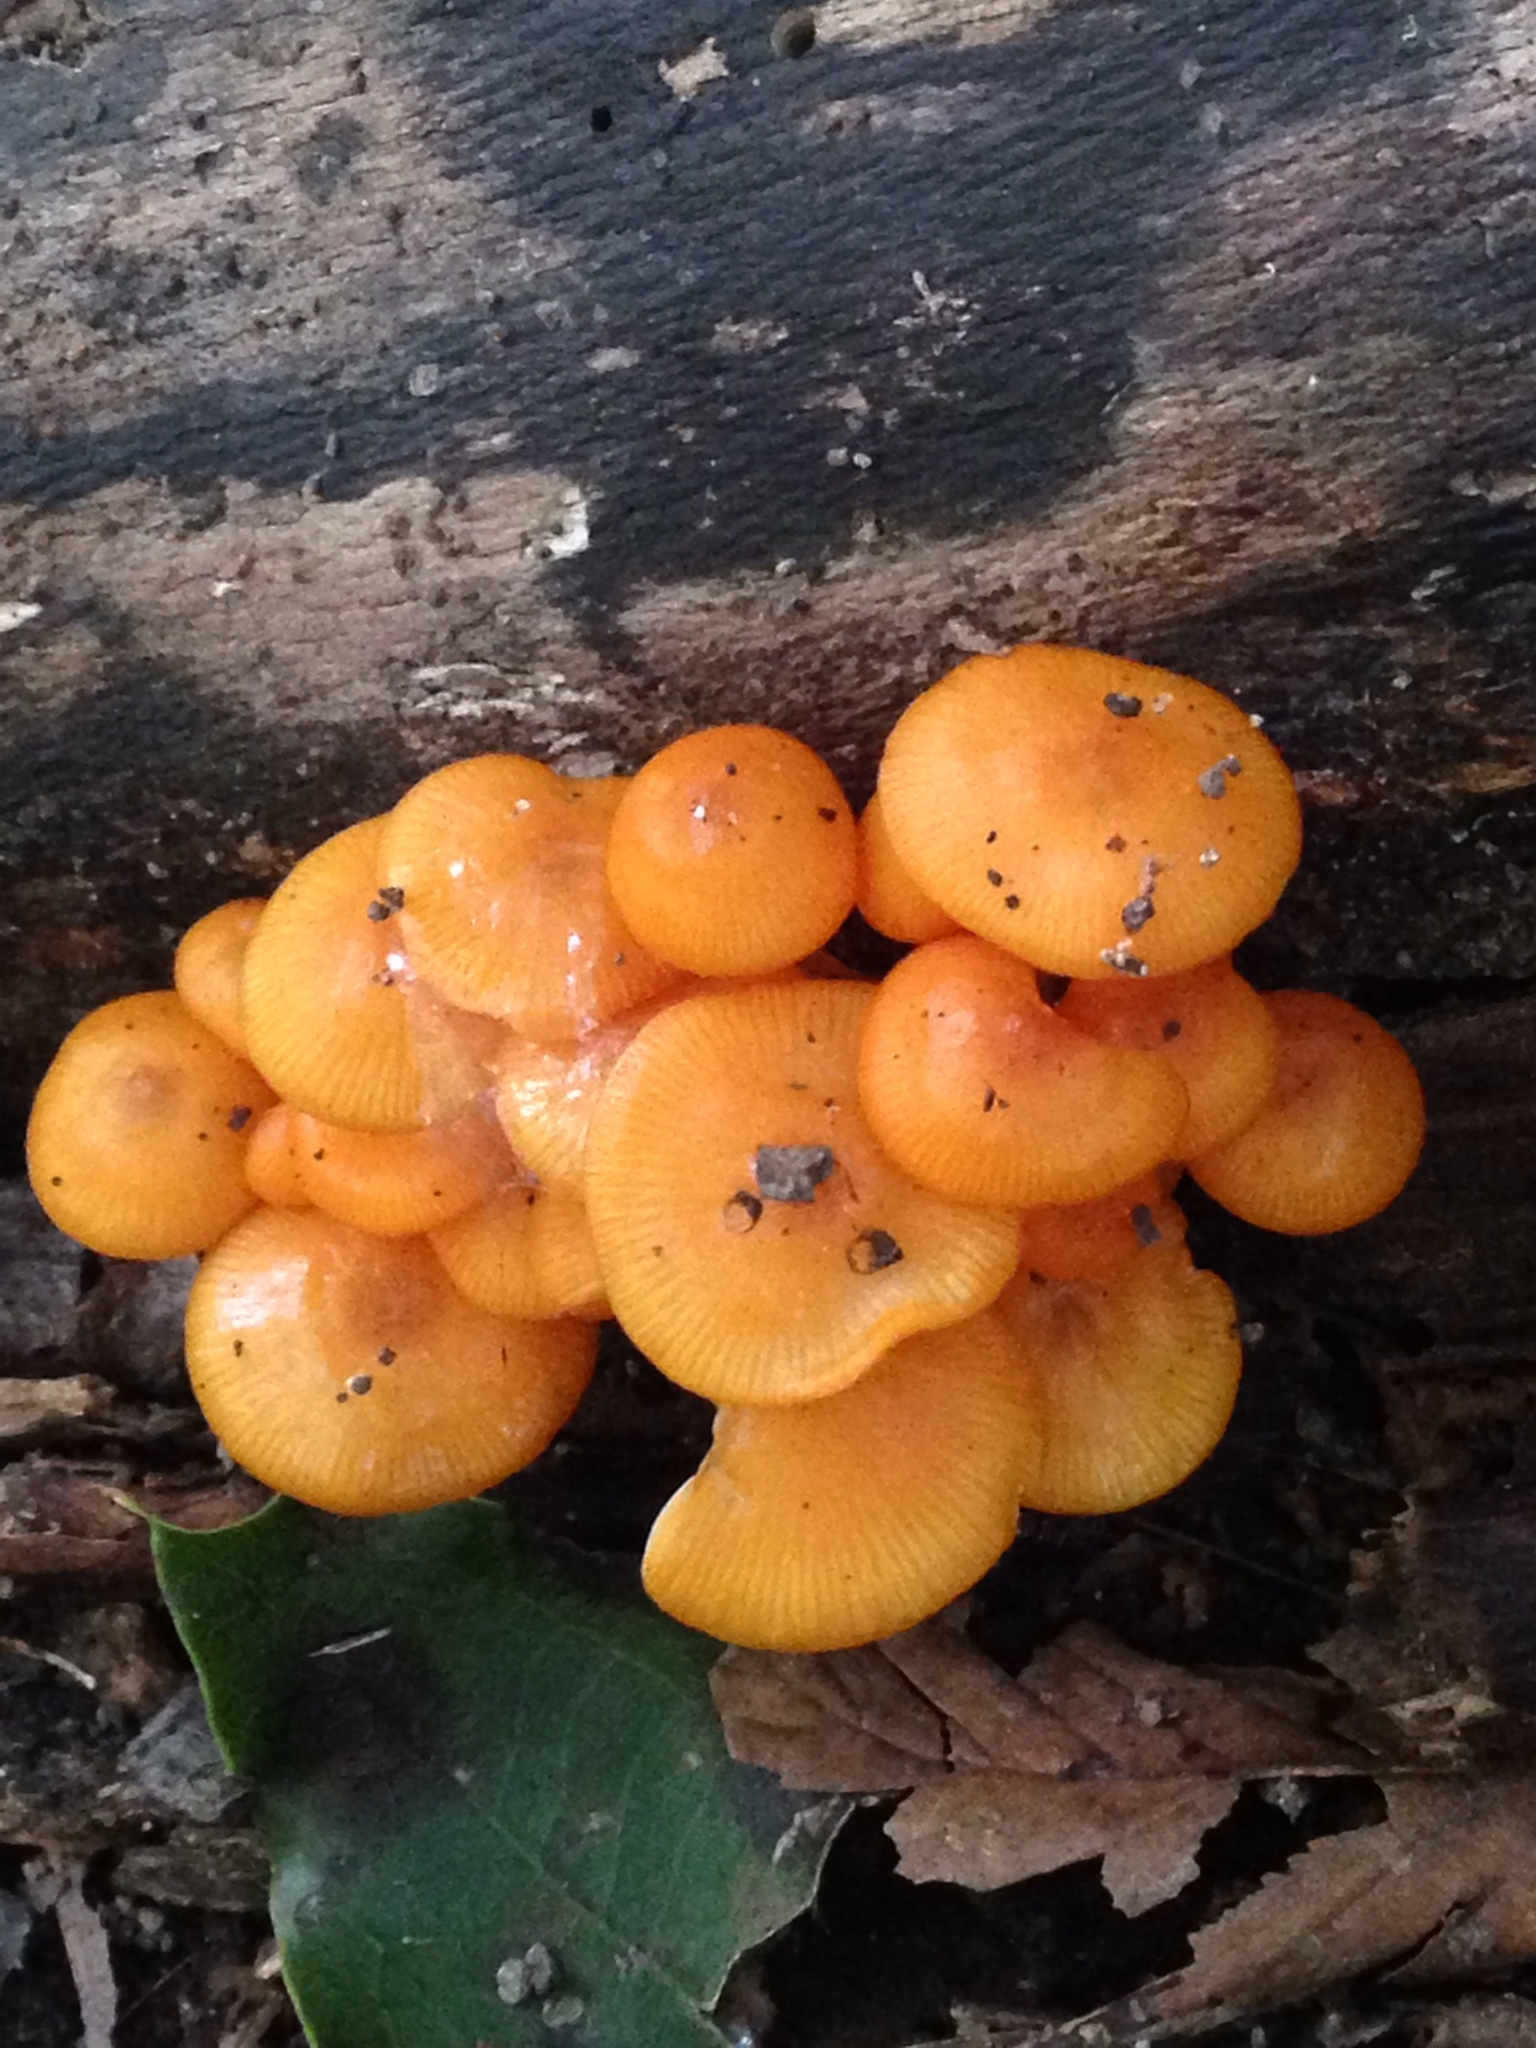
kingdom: Fungi
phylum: Basidiomycota
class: Agaricomycetes
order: Agaricales
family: Mycenaceae
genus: Mycena
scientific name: Mycena leaiana
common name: Orange mycena
